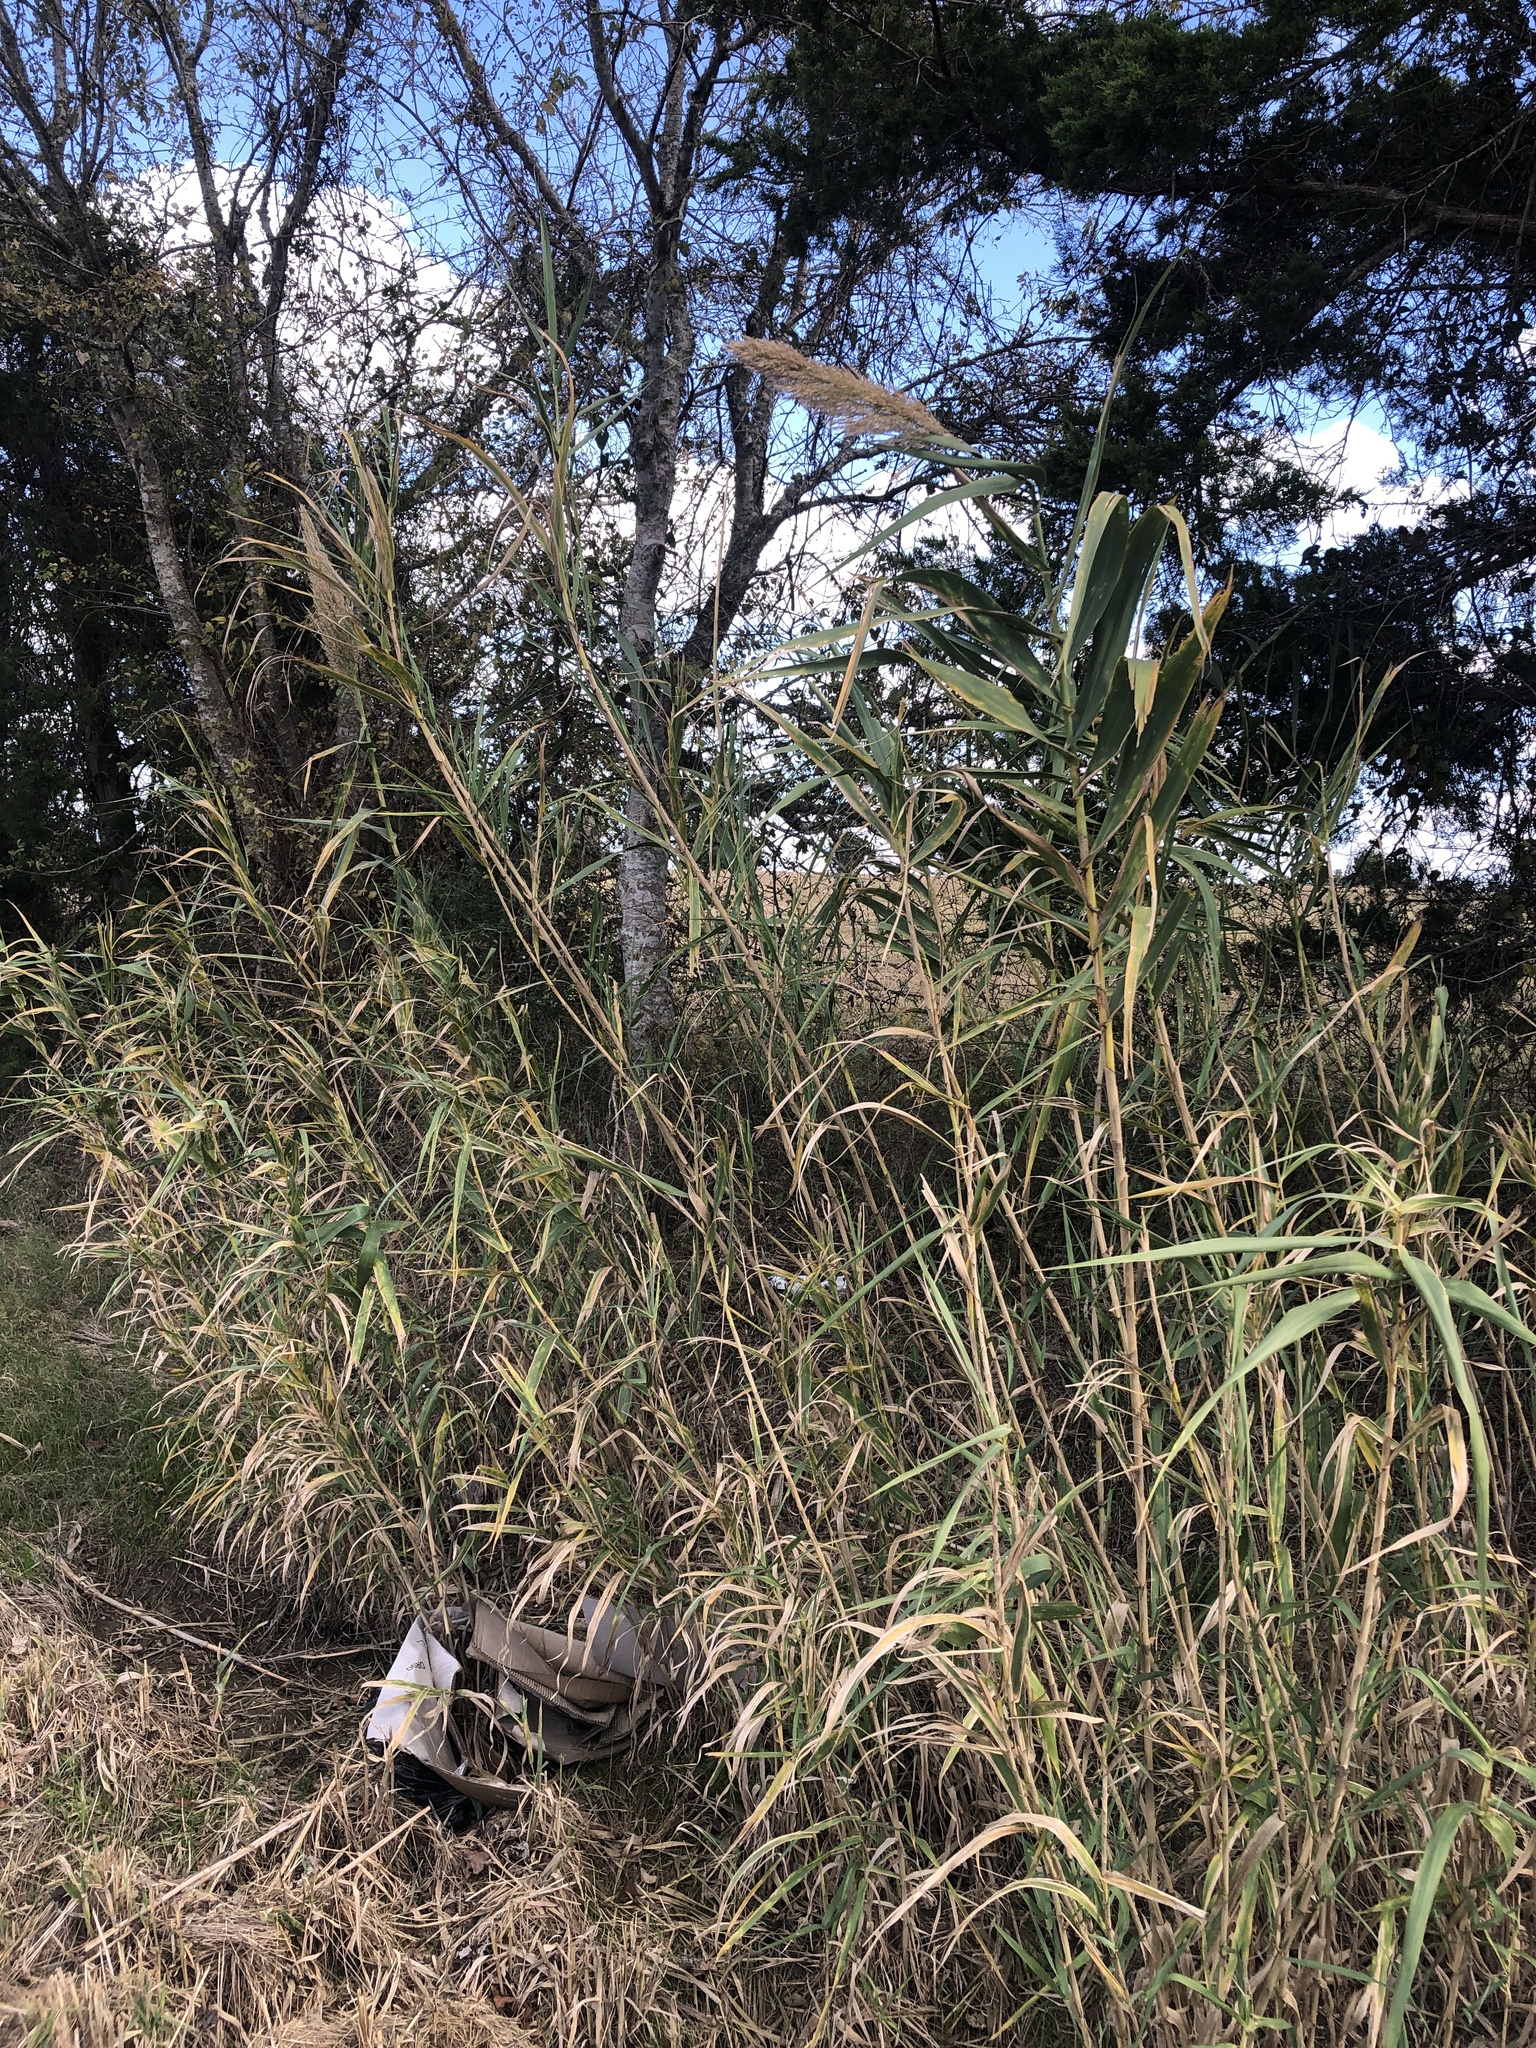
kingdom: Plantae
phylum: Tracheophyta
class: Liliopsida
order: Poales
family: Poaceae
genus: Arundo
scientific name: Arundo donax
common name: Giant reed
